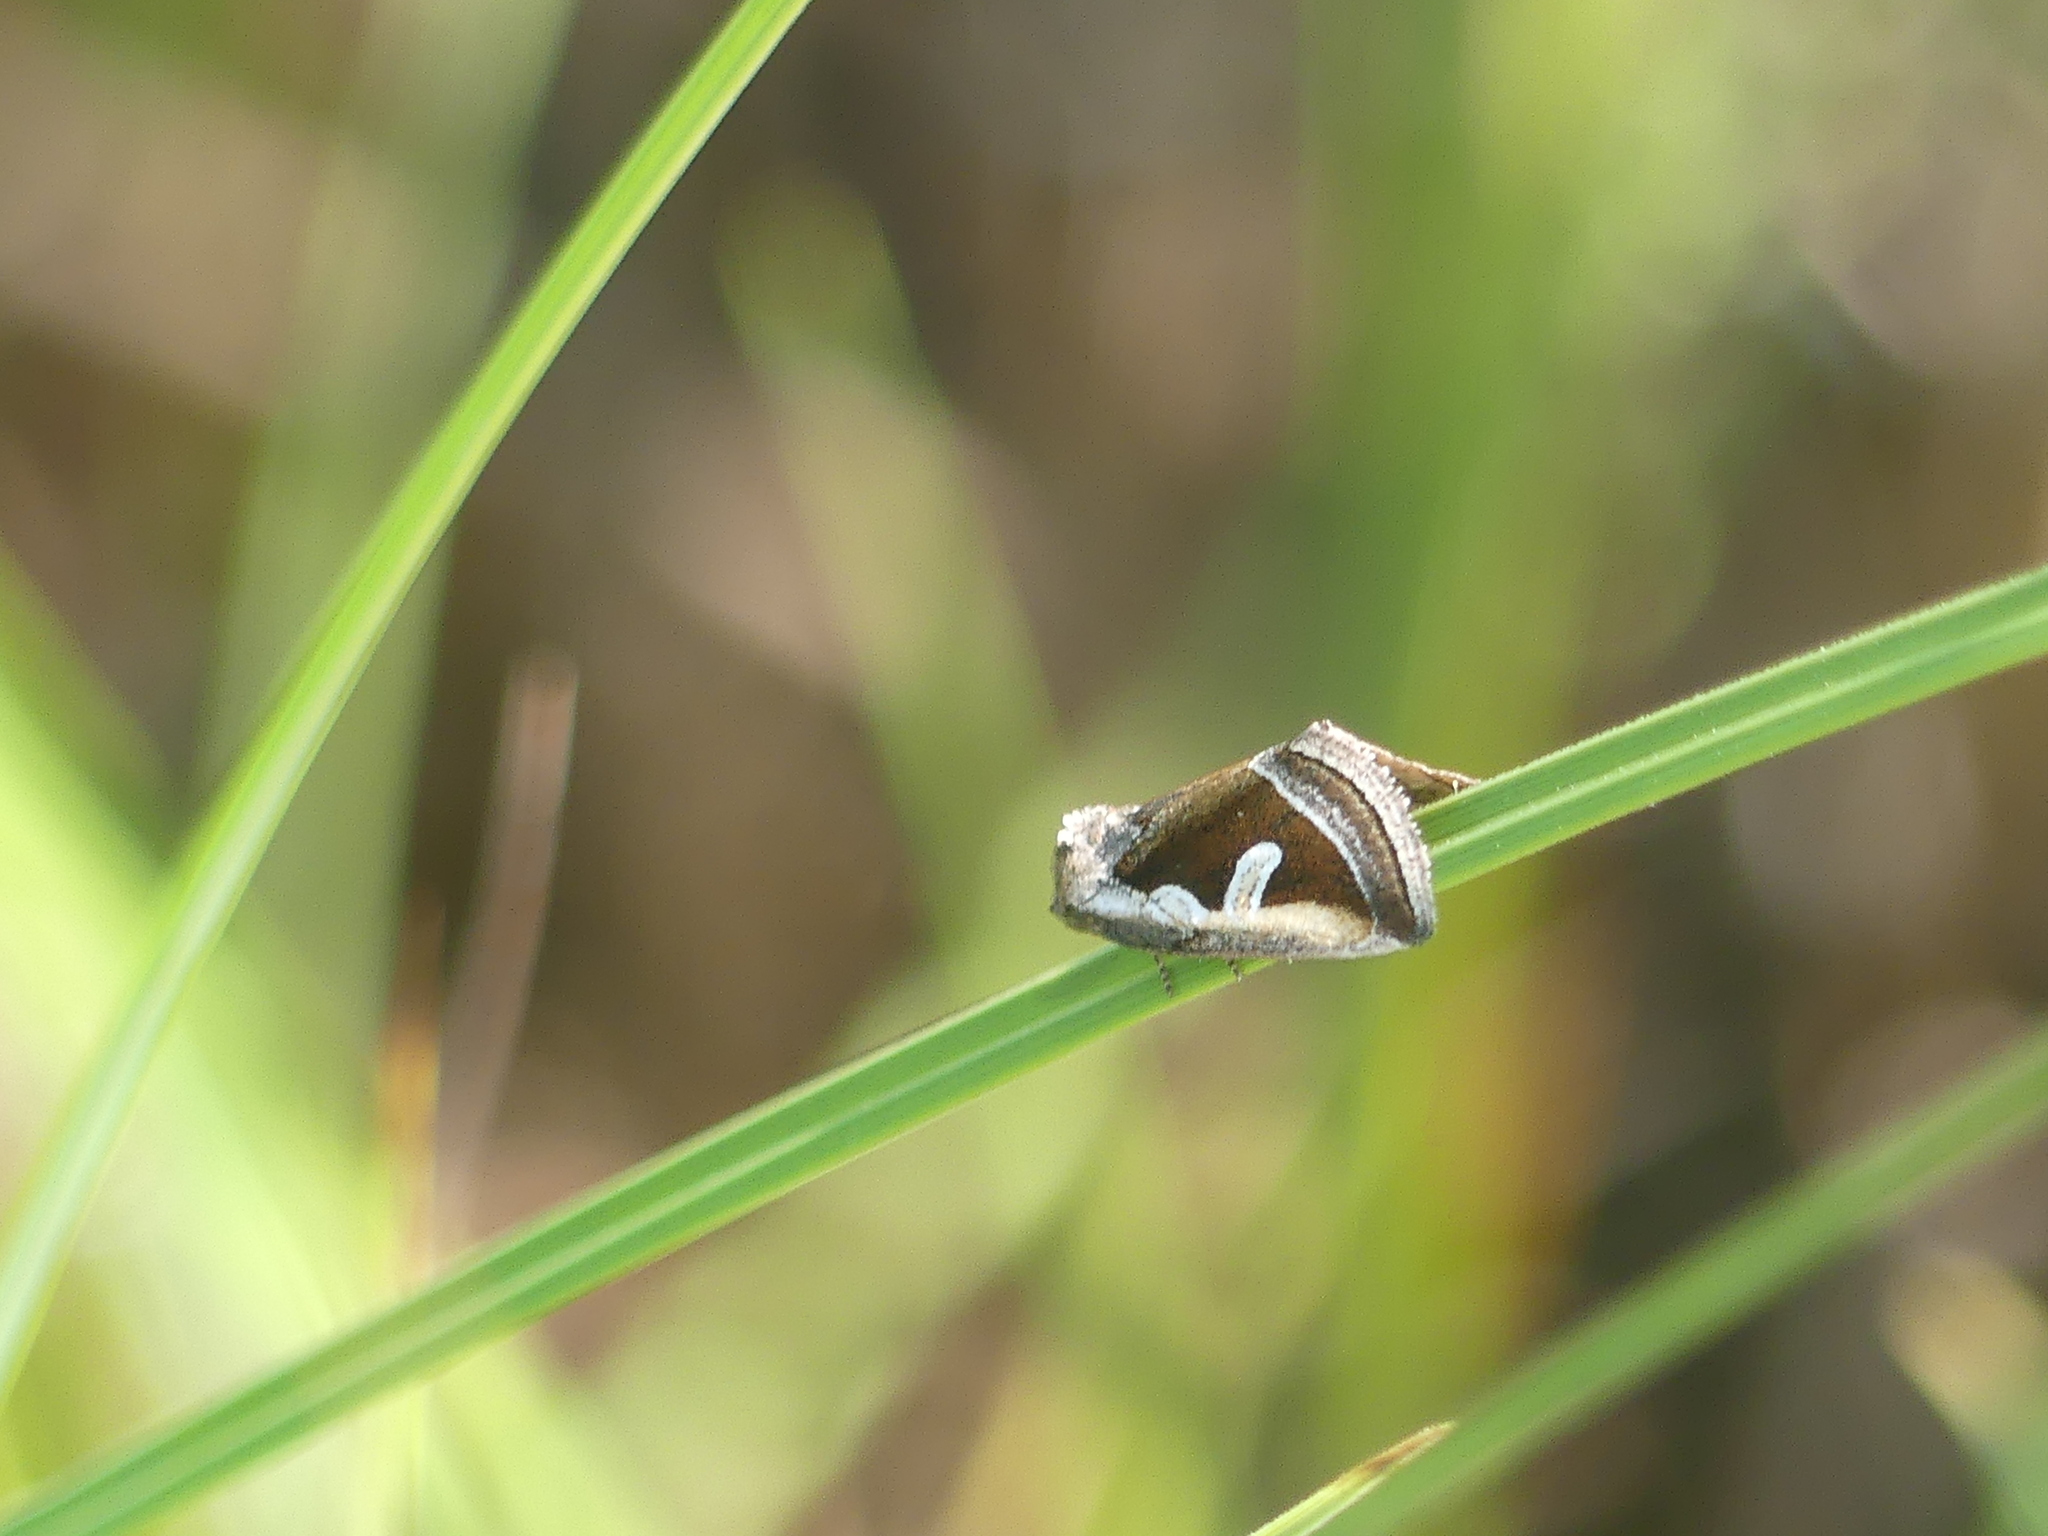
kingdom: Animalia
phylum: Arthropoda
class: Insecta
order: Lepidoptera
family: Noctuidae
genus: Deltote
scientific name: Deltote uncula
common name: Silver hook
